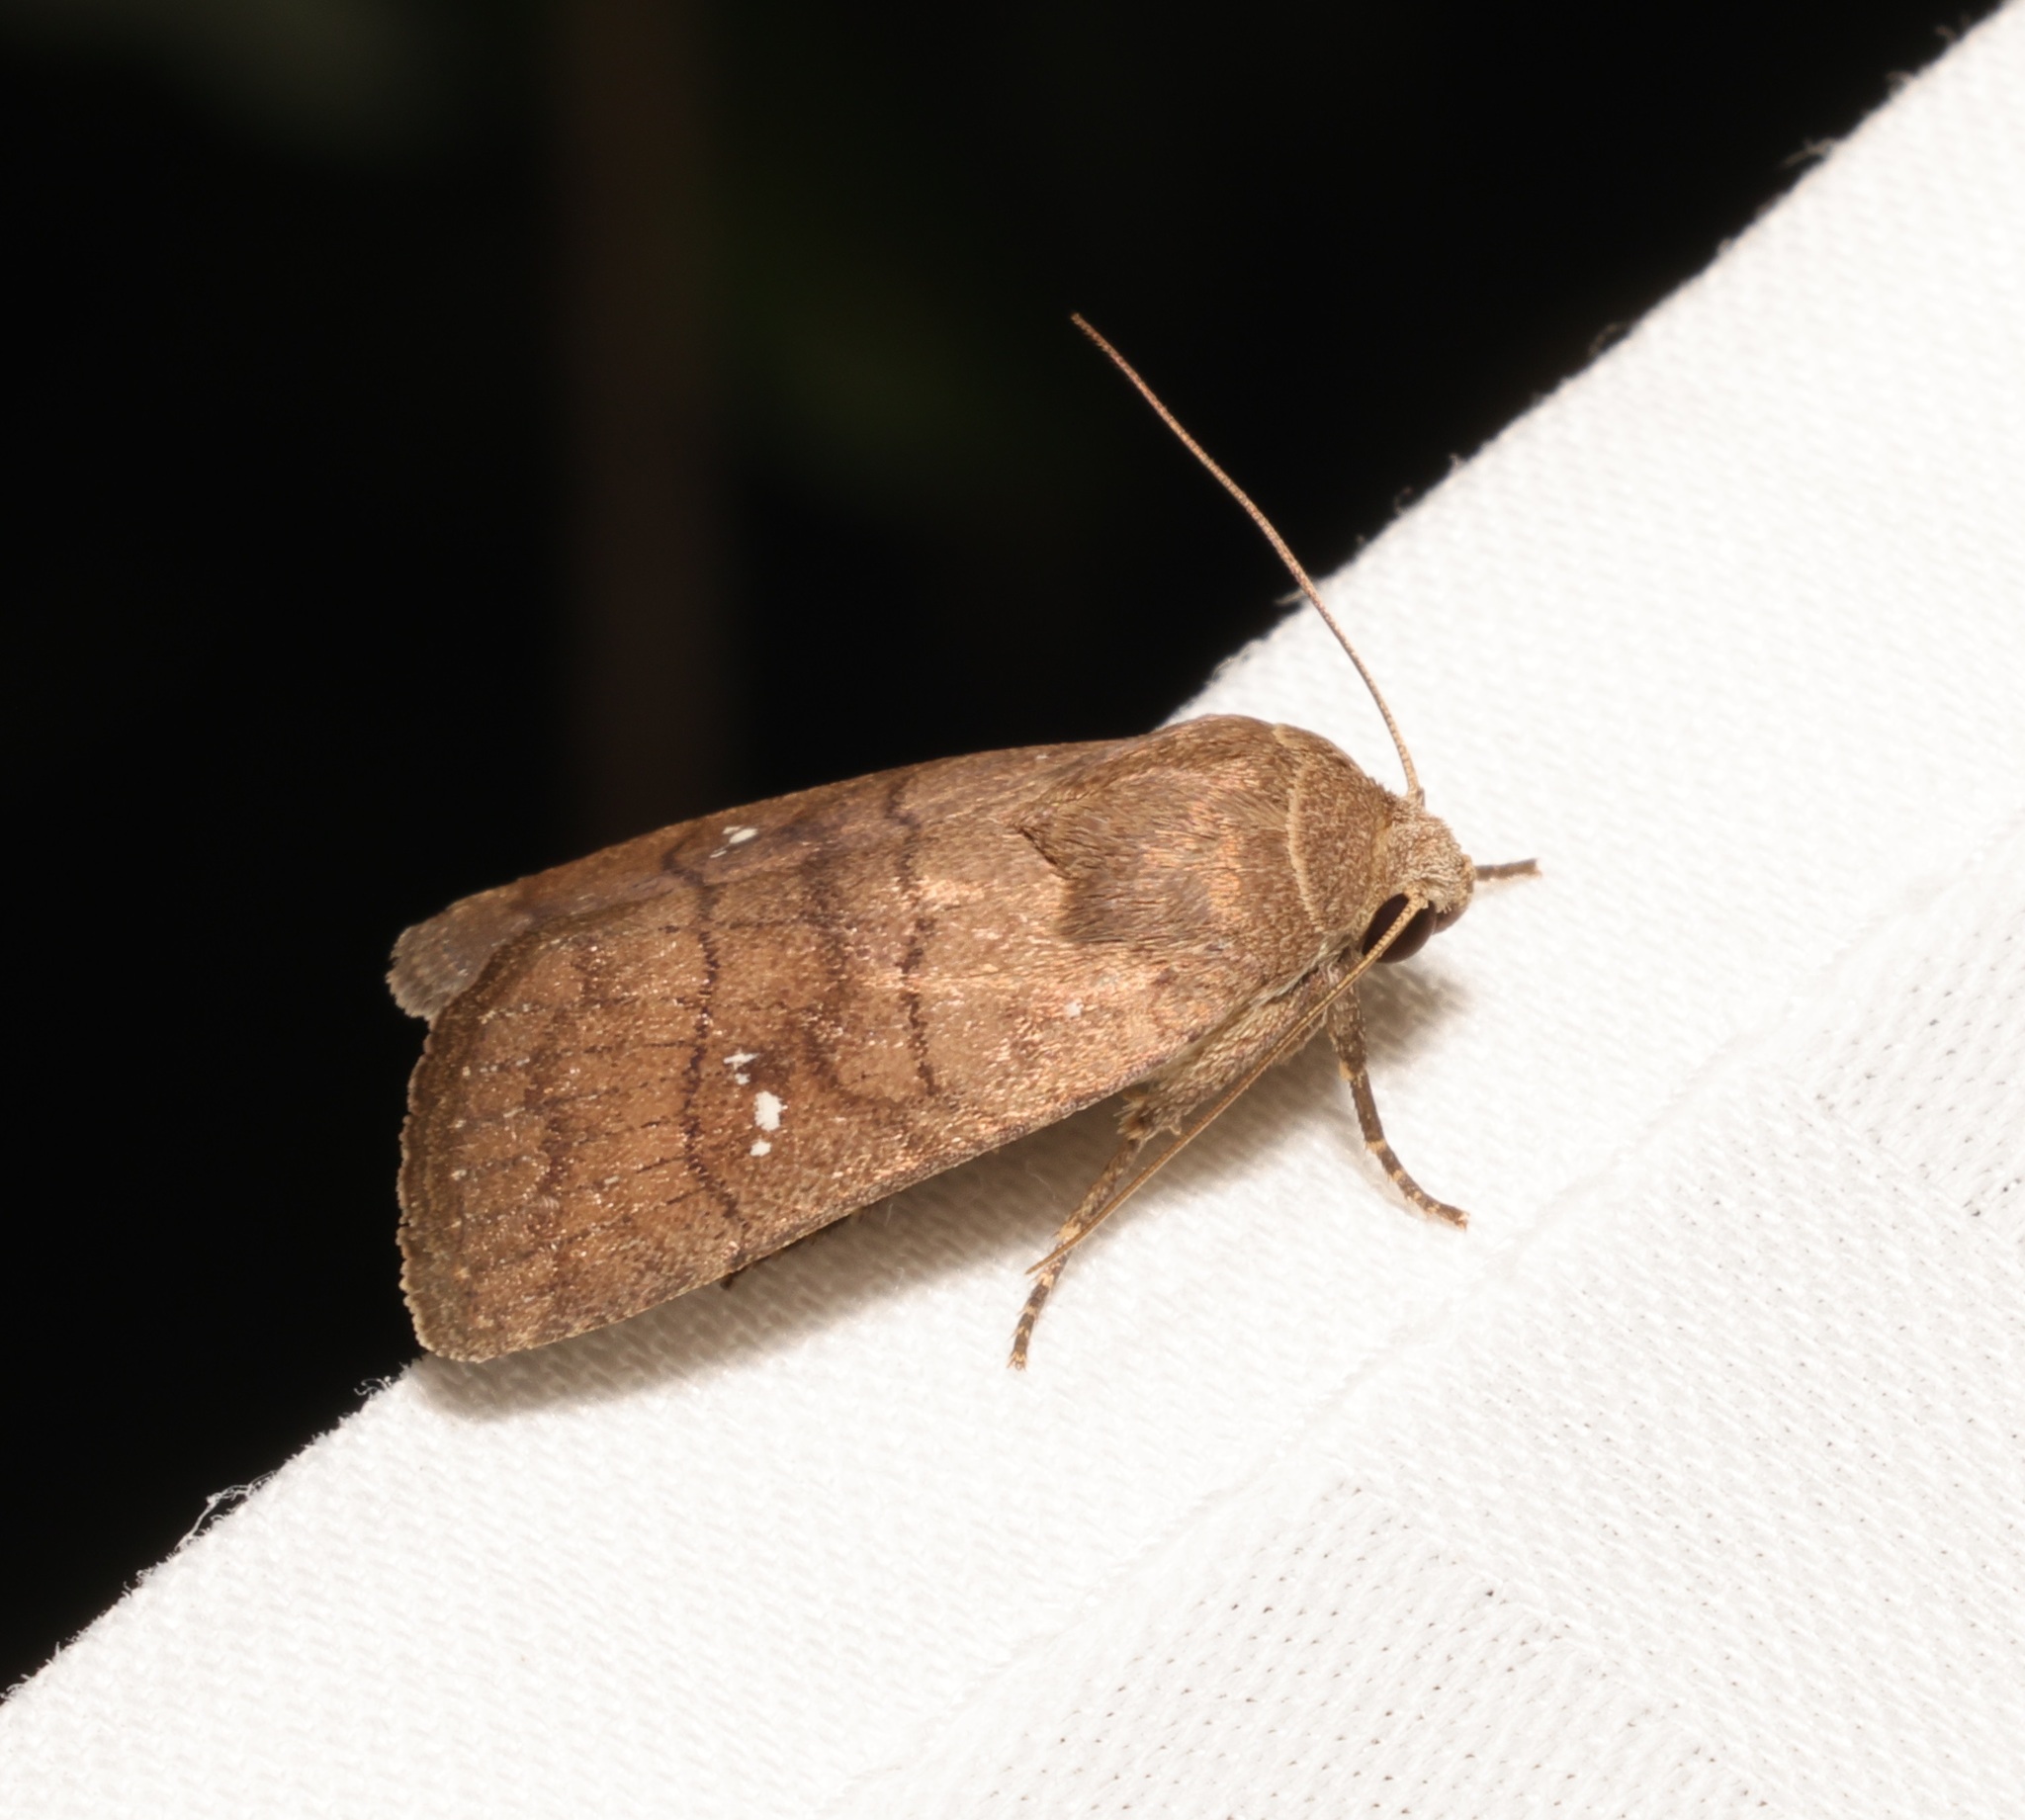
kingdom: Animalia
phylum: Arthropoda
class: Insecta
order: Lepidoptera
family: Noctuidae
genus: Athetis
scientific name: Athetis hongkongensis
